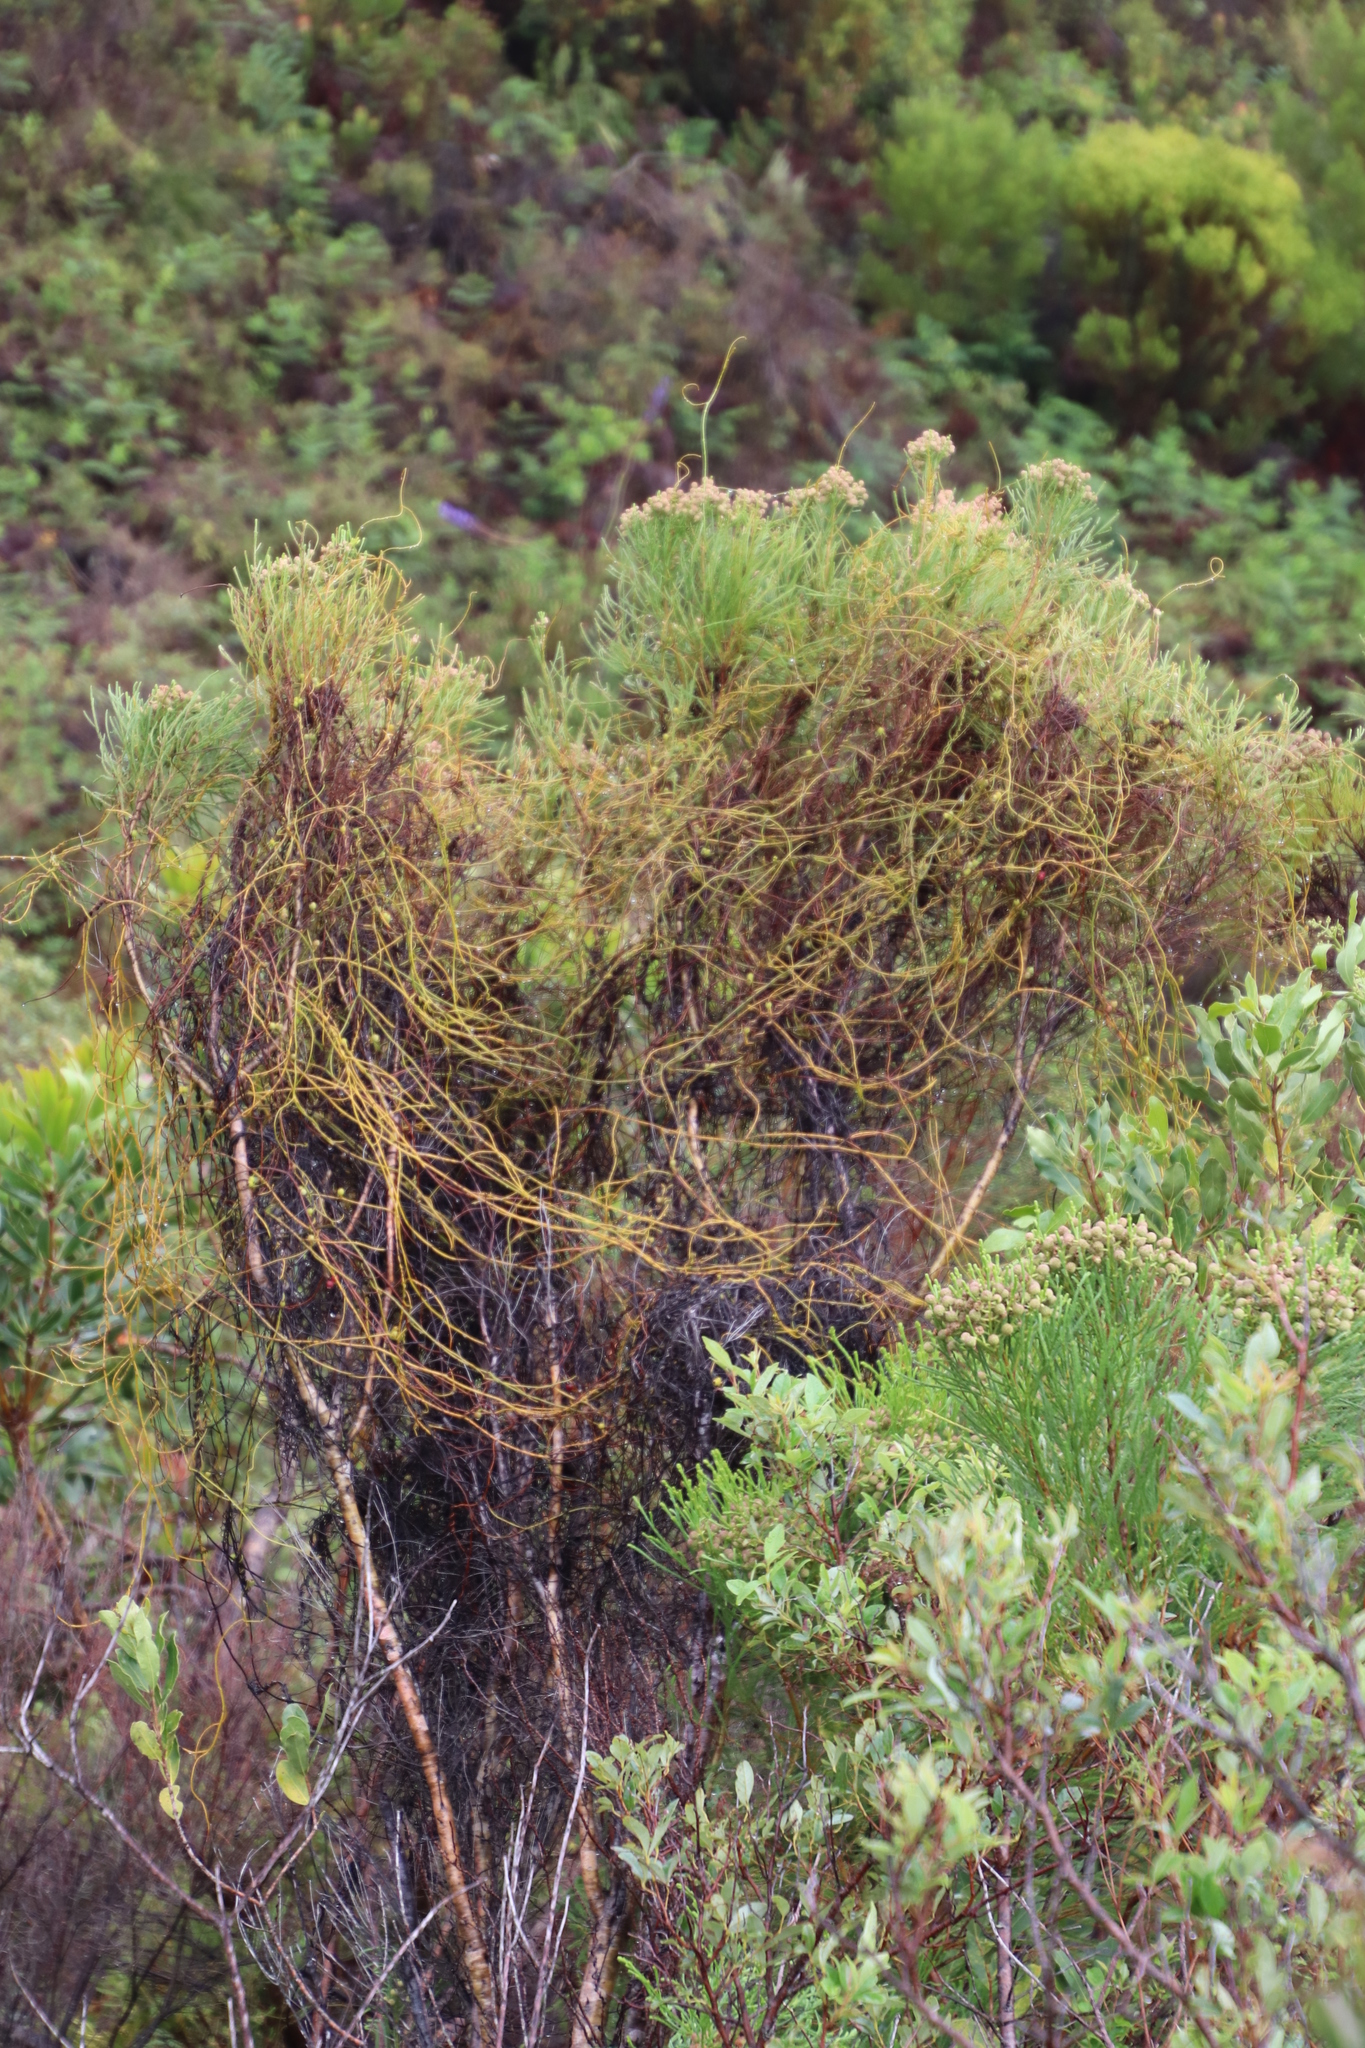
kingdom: Plantae
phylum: Tracheophyta
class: Magnoliopsida
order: Laurales
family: Lauraceae
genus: Cassytha
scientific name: Cassytha ciliolata
